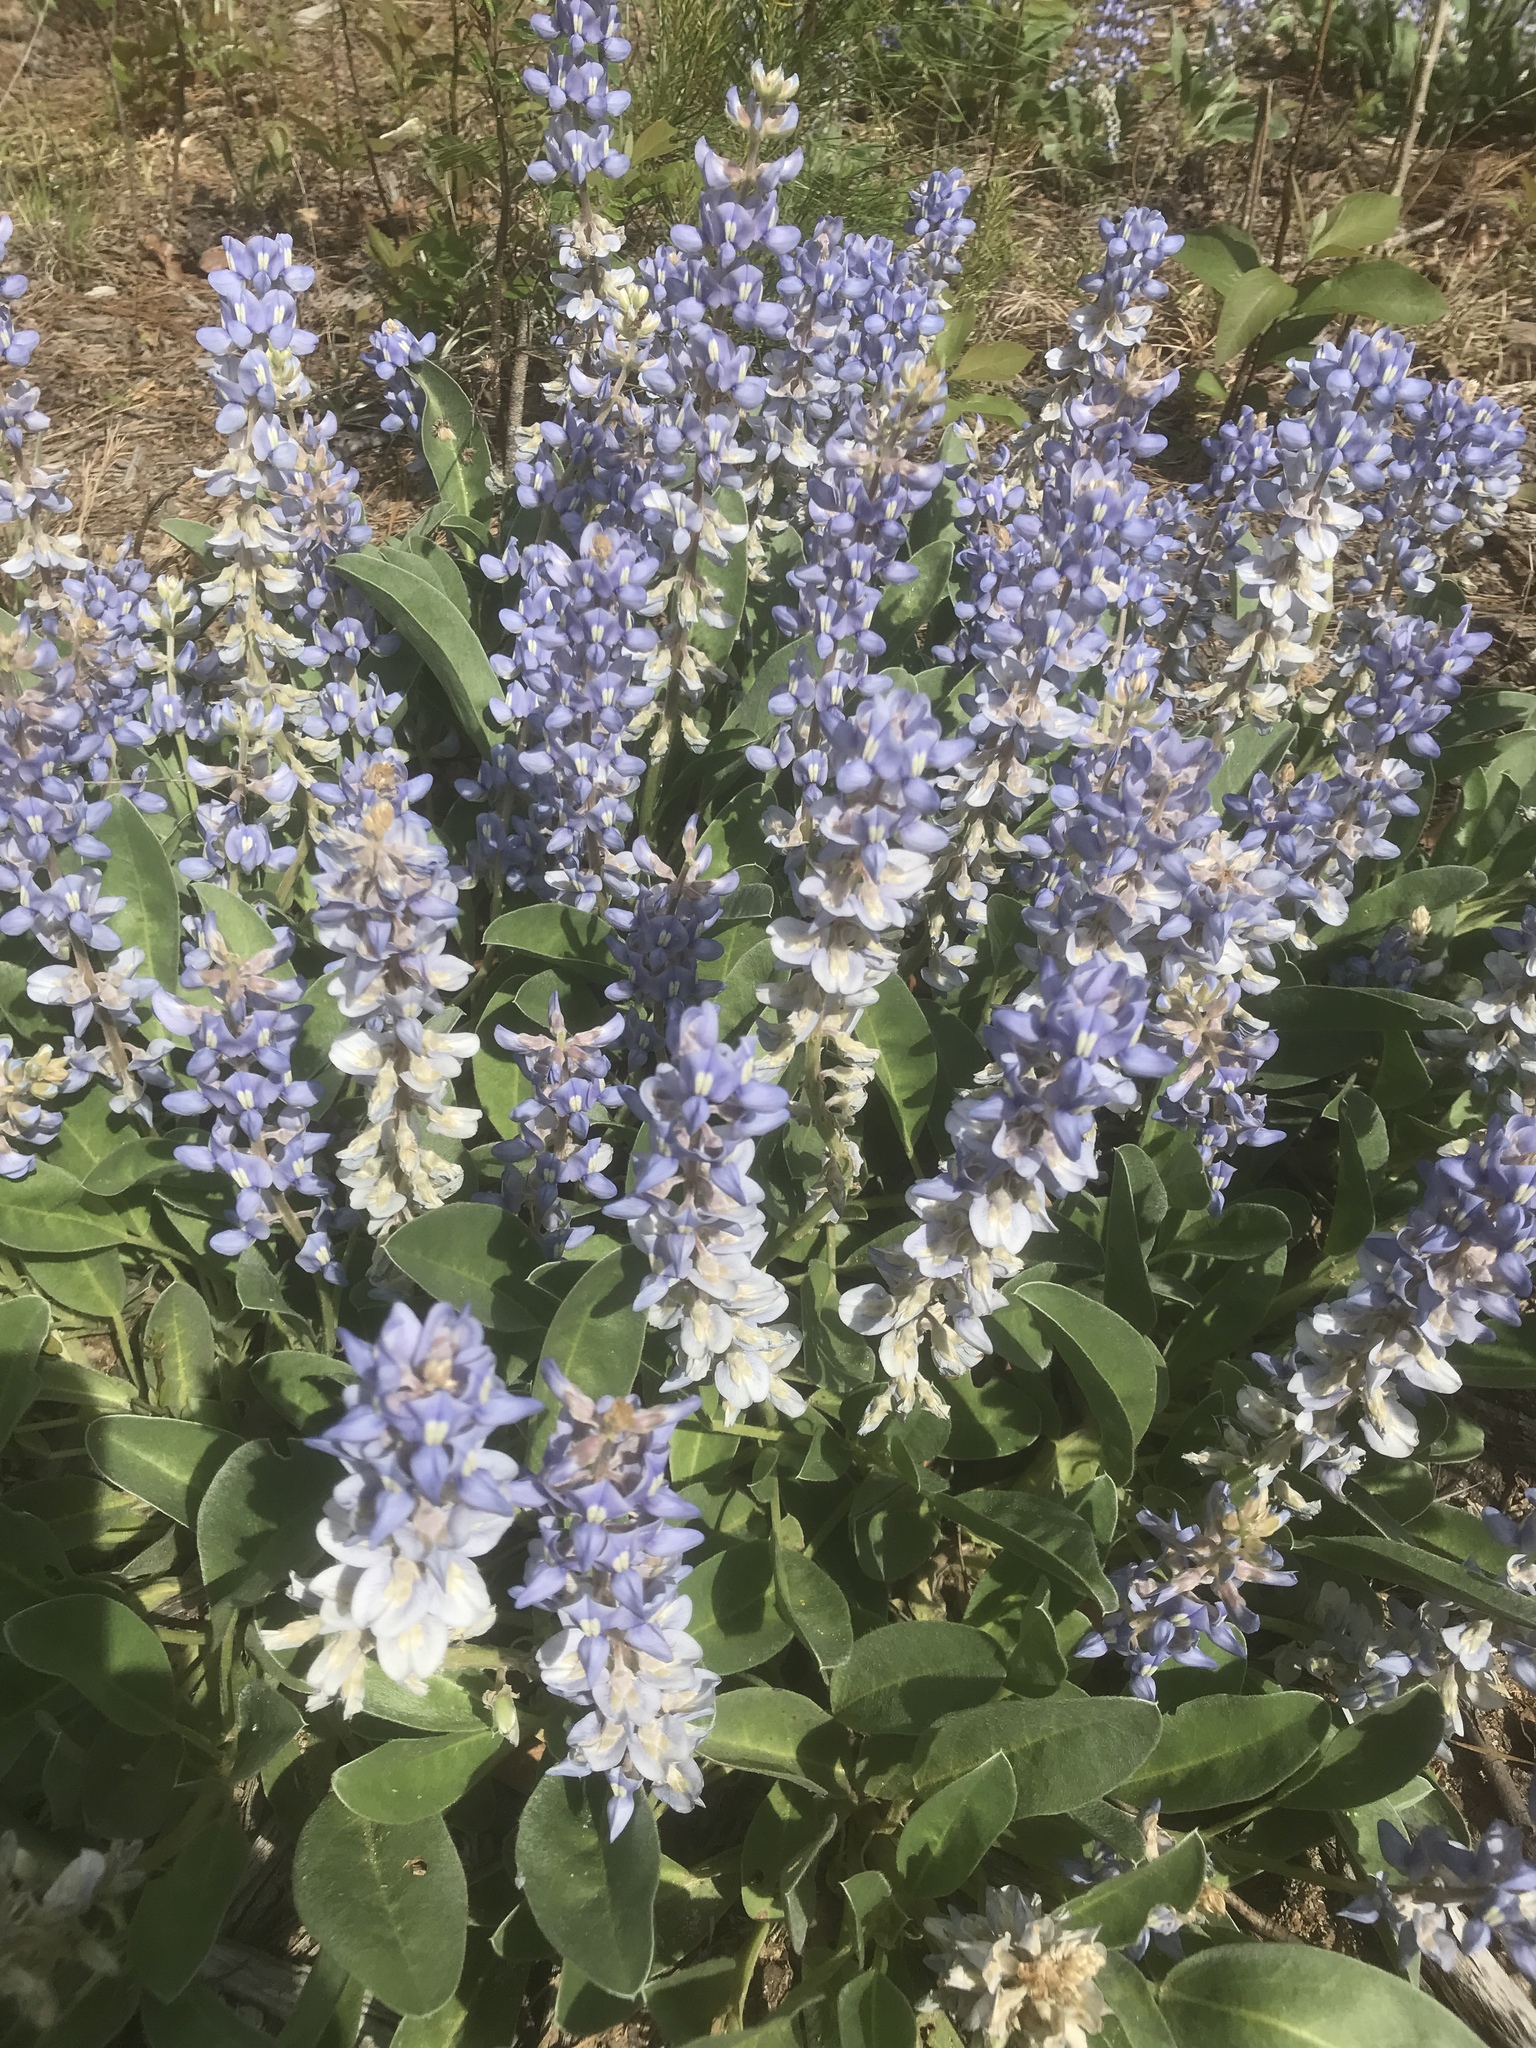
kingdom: Plantae
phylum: Tracheophyta
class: Magnoliopsida
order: Fabales
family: Fabaceae
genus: Lupinus
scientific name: Lupinus diffusus
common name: Oak ridge lupine
